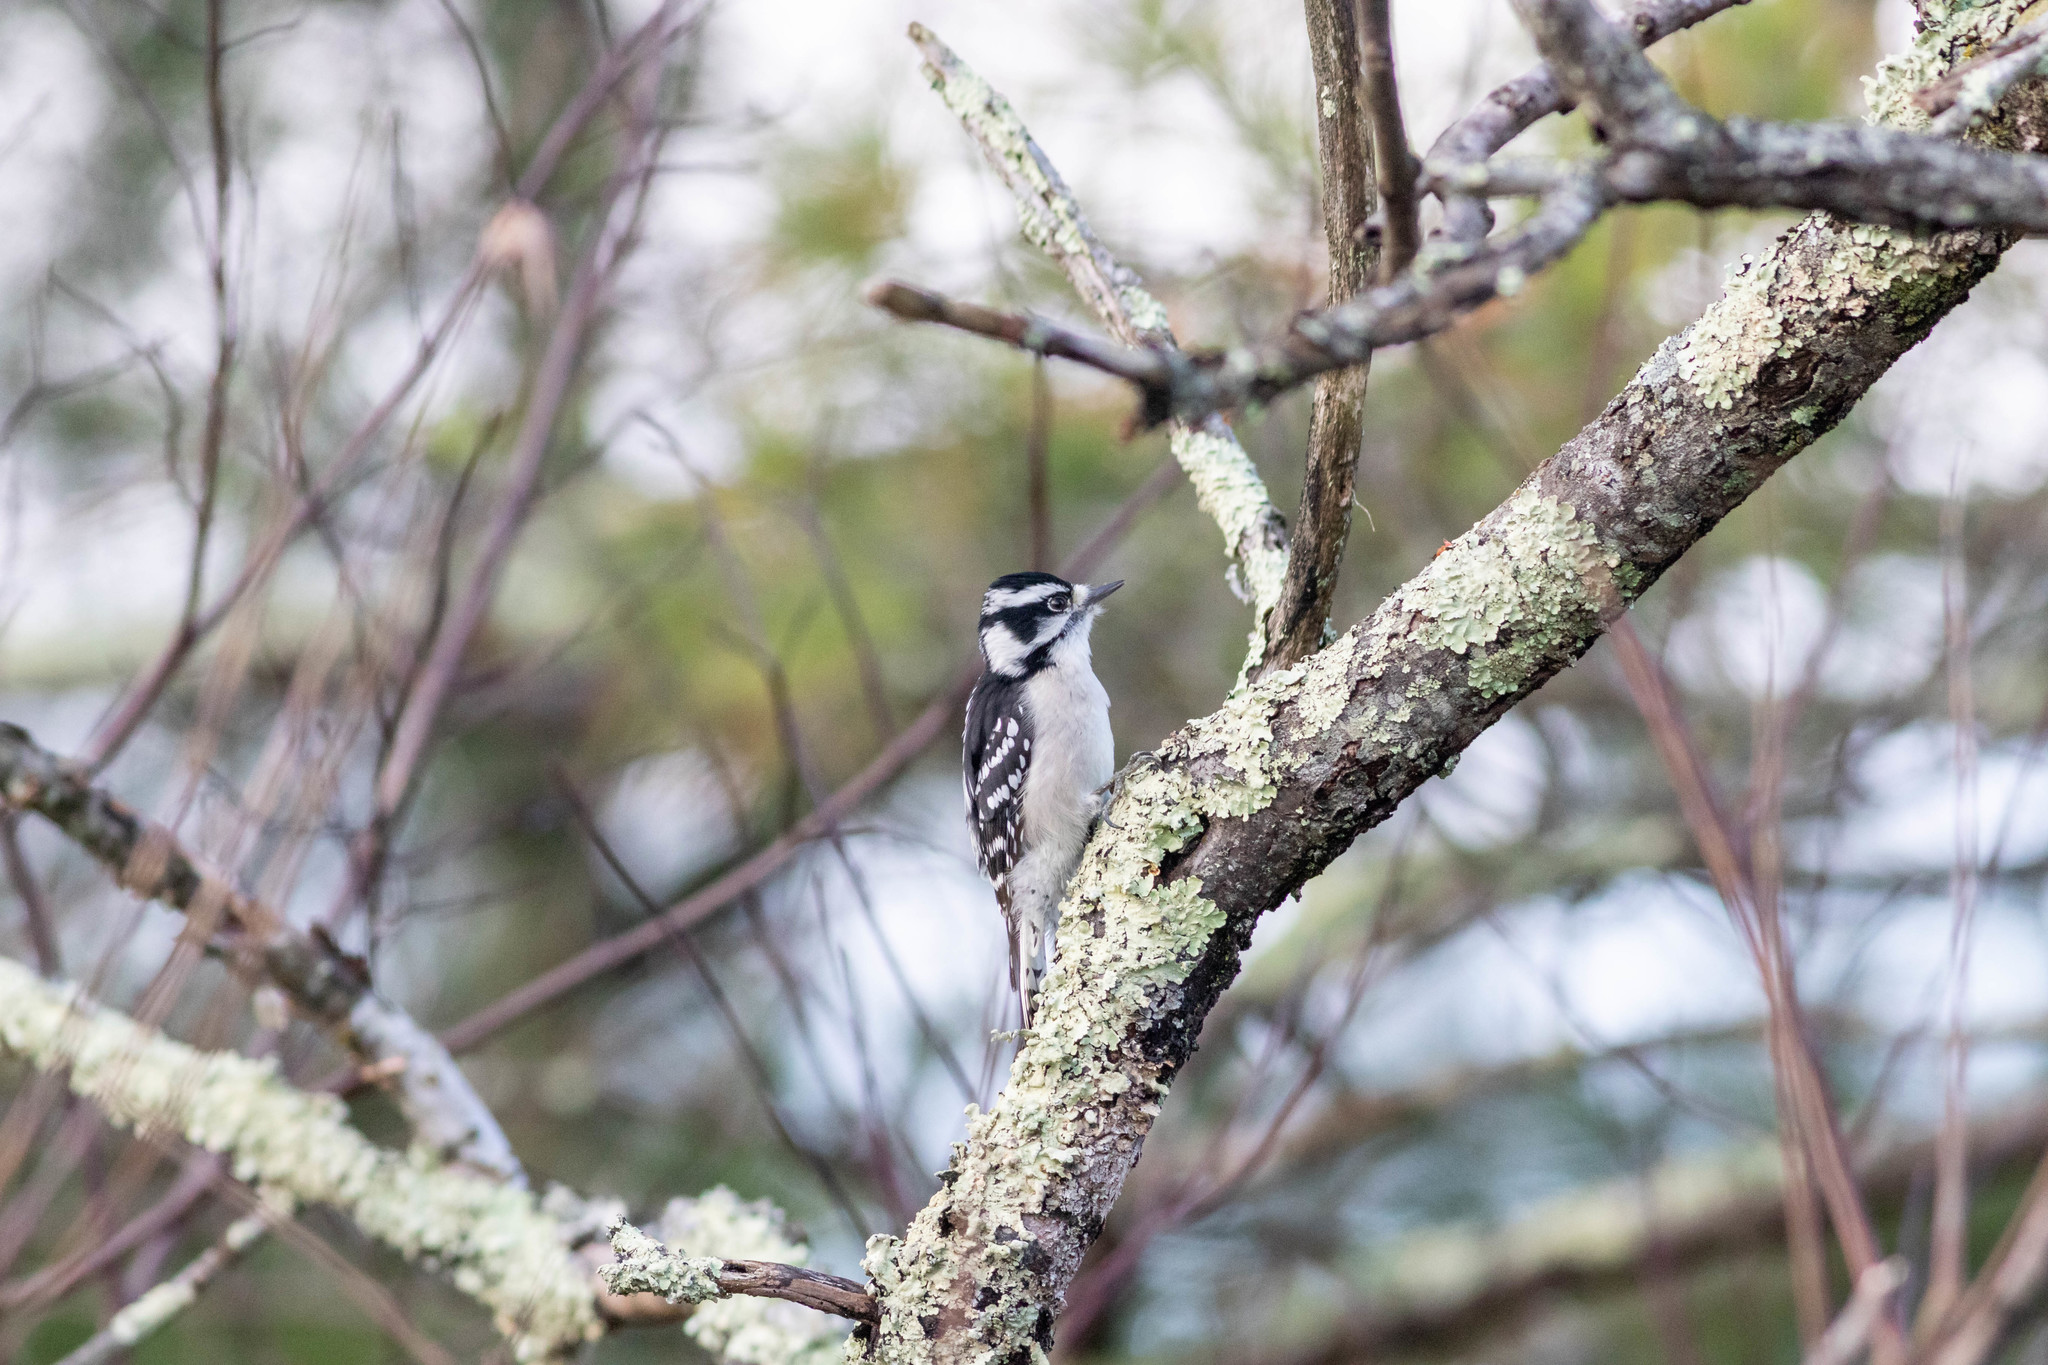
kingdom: Animalia
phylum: Chordata
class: Aves
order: Piciformes
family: Picidae
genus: Dryobates
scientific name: Dryobates pubescens
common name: Downy woodpecker
